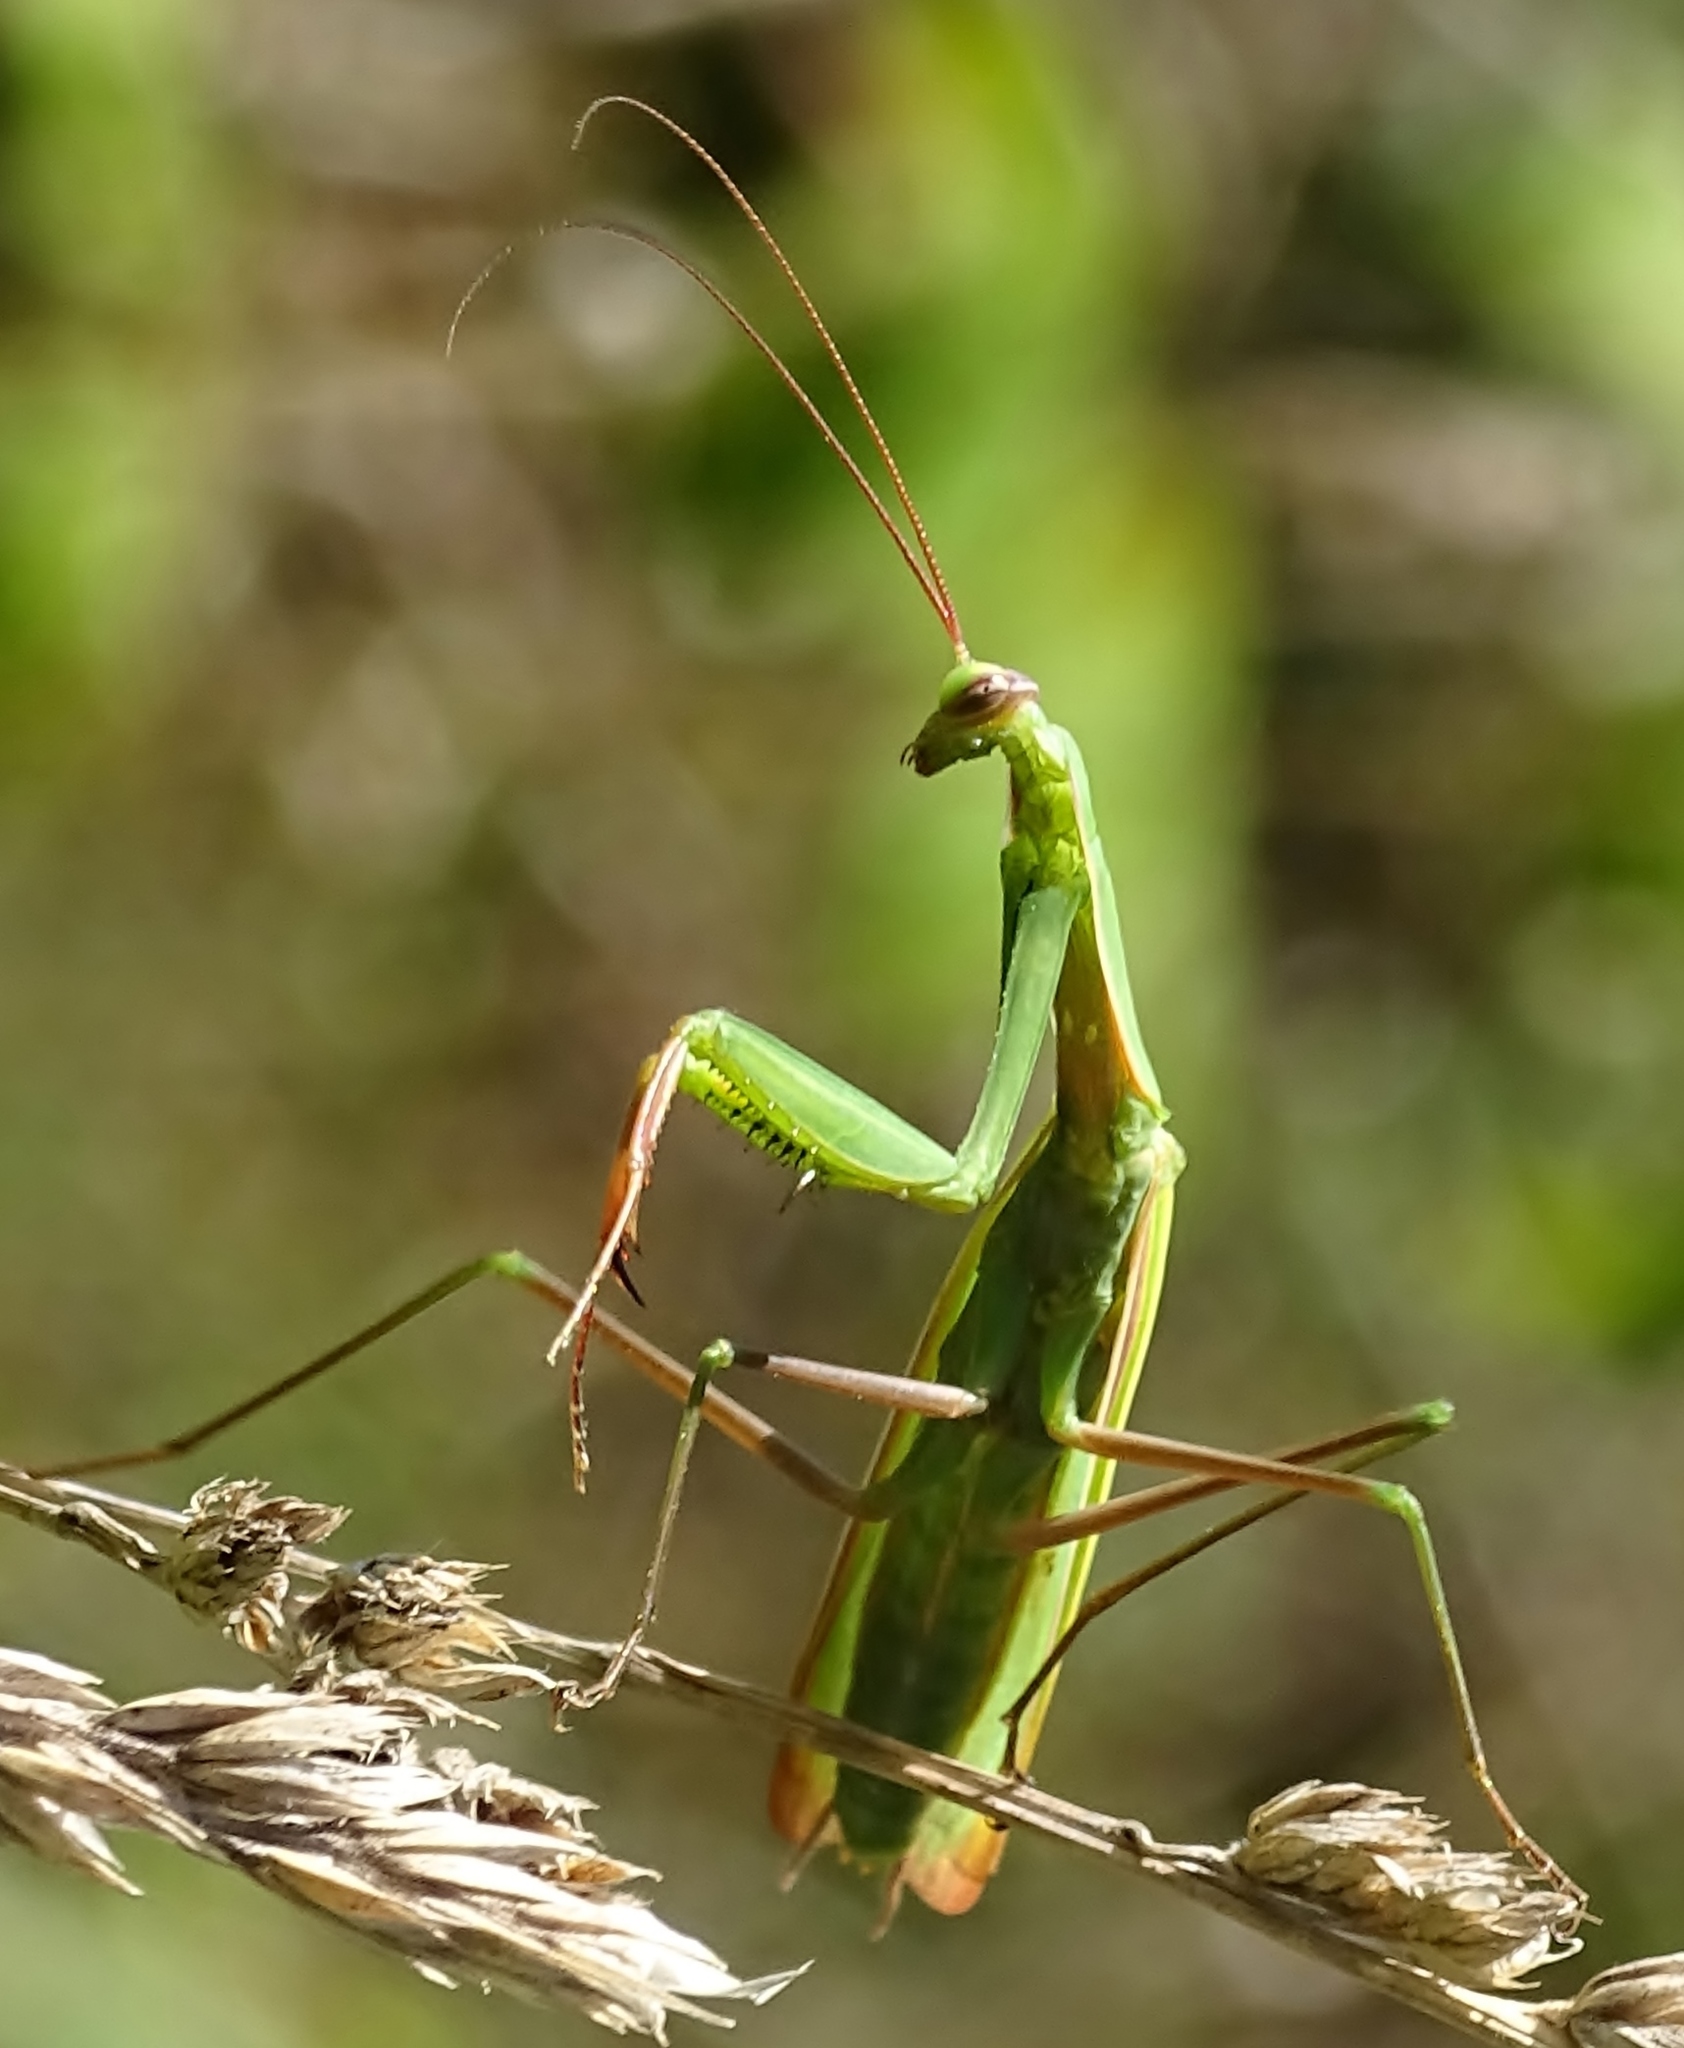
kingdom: Animalia
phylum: Arthropoda
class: Insecta
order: Mantodea
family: Mantidae
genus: Mantis
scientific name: Mantis religiosa
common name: Praying mantis
